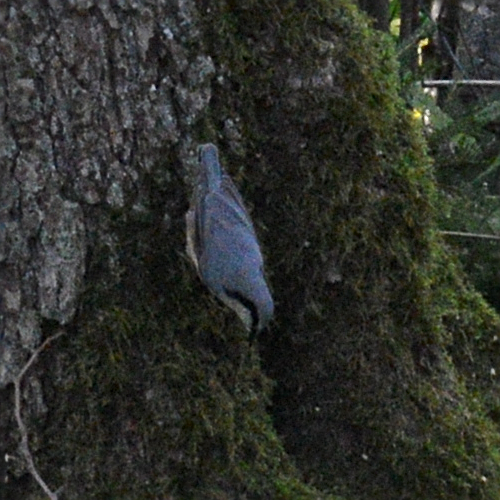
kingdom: Animalia
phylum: Chordata
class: Aves
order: Passeriformes
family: Sittidae
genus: Sitta
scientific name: Sitta europaea
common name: Eurasian nuthatch
